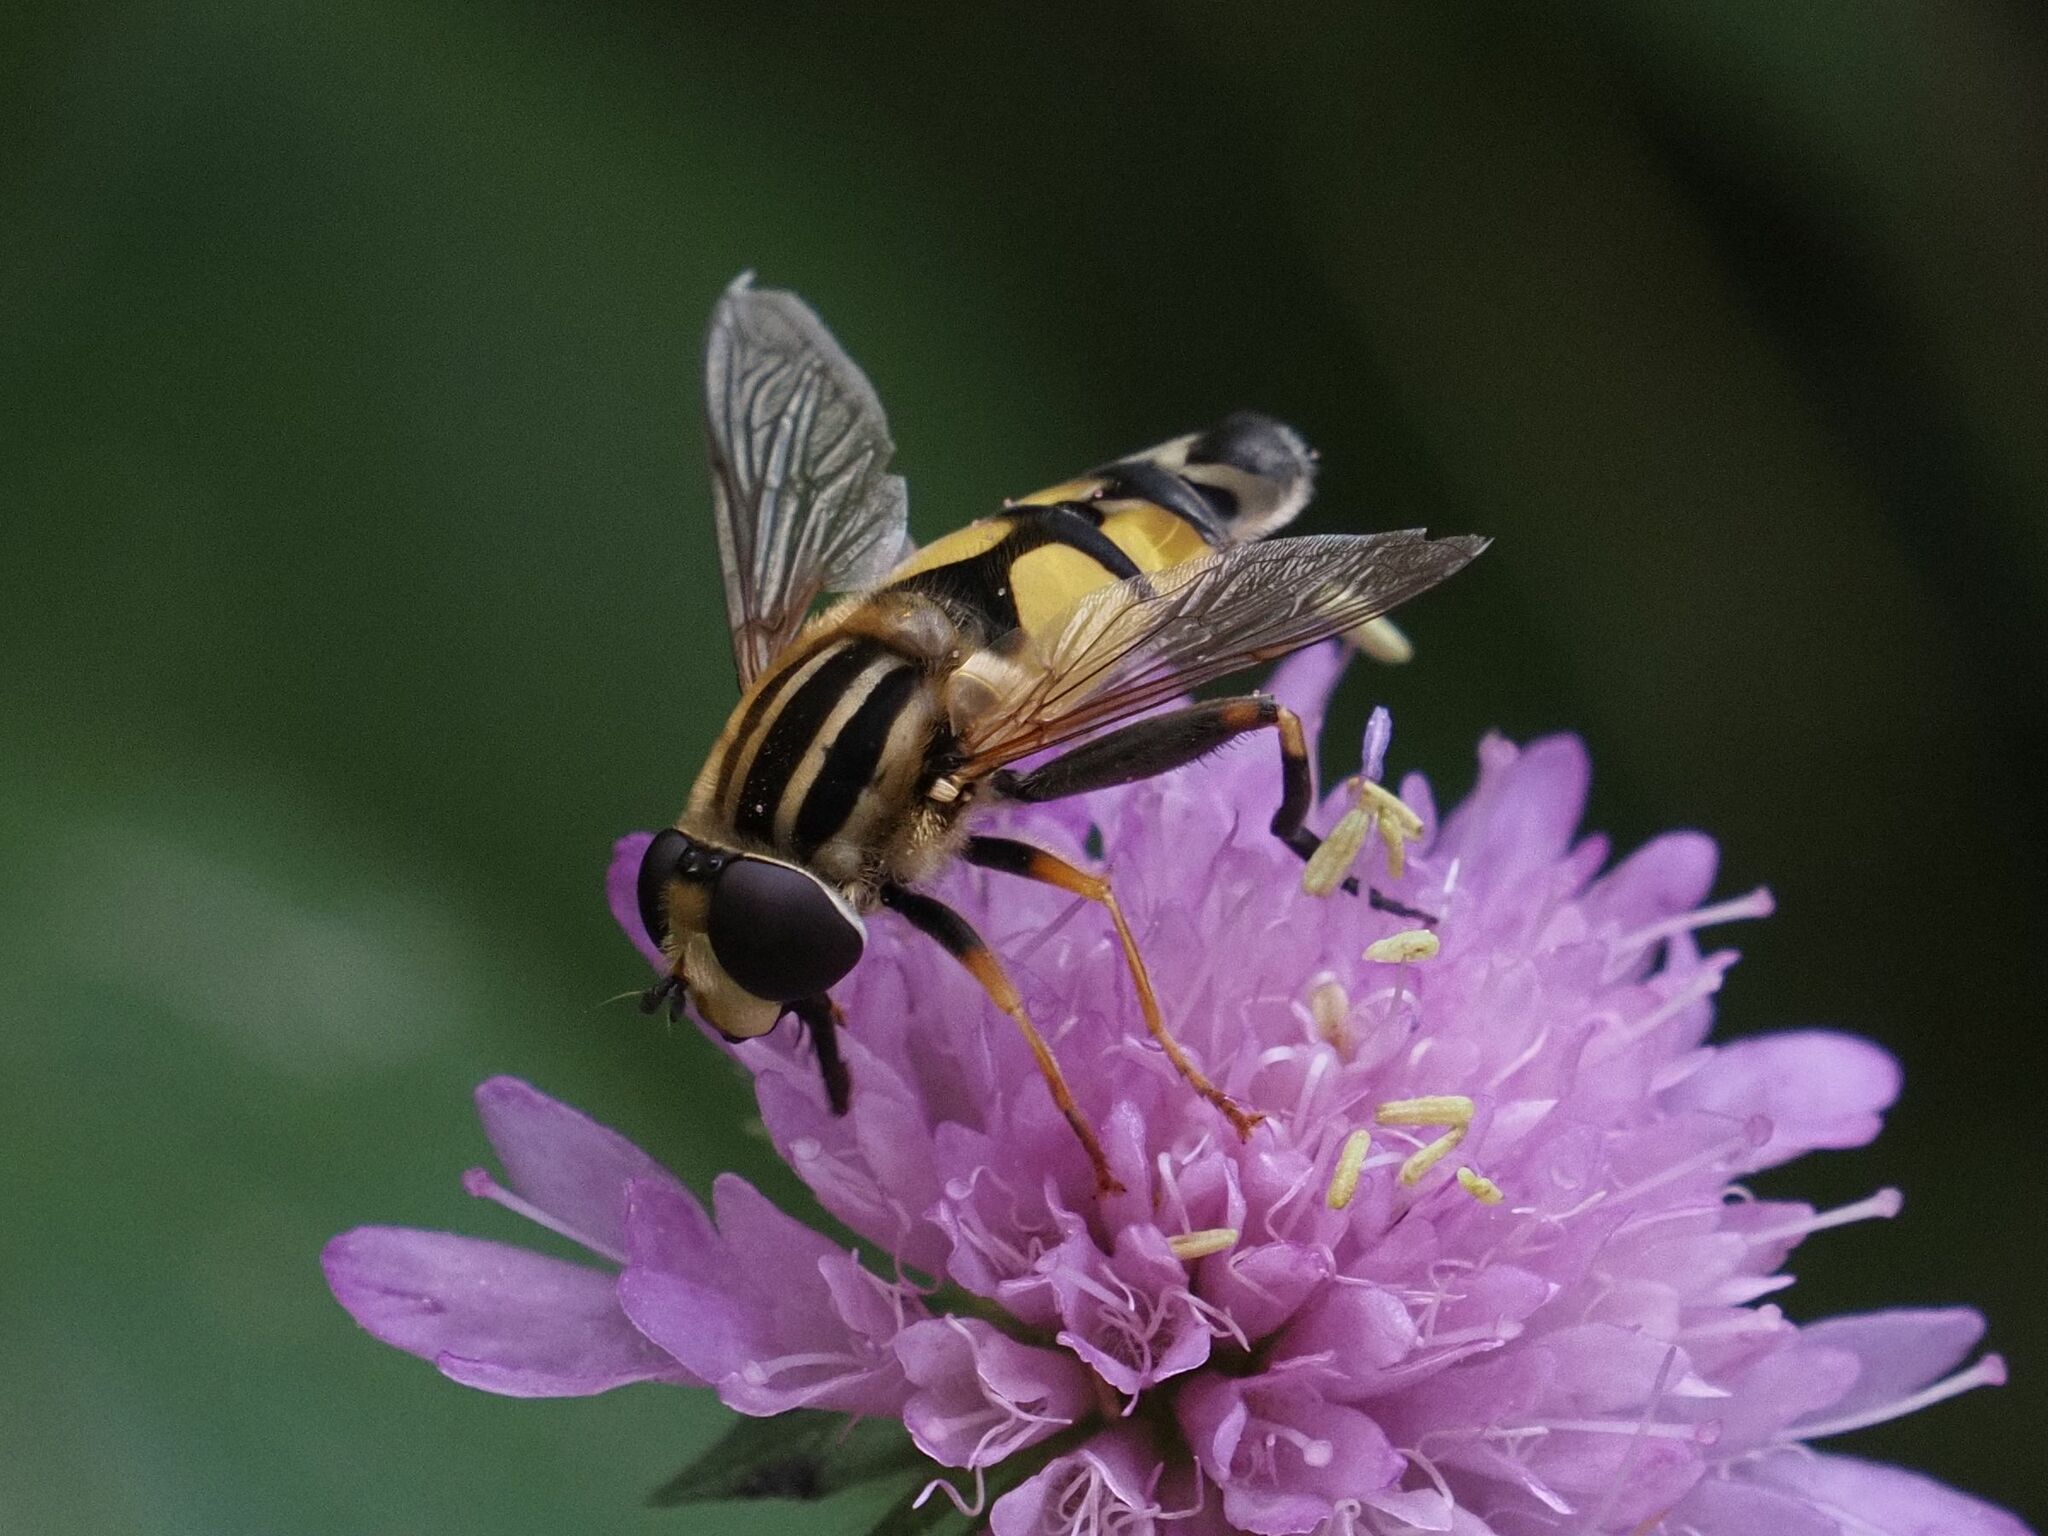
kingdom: Animalia
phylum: Arthropoda
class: Insecta
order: Diptera
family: Syrphidae
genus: Helophilus
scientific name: Helophilus trivittatus
